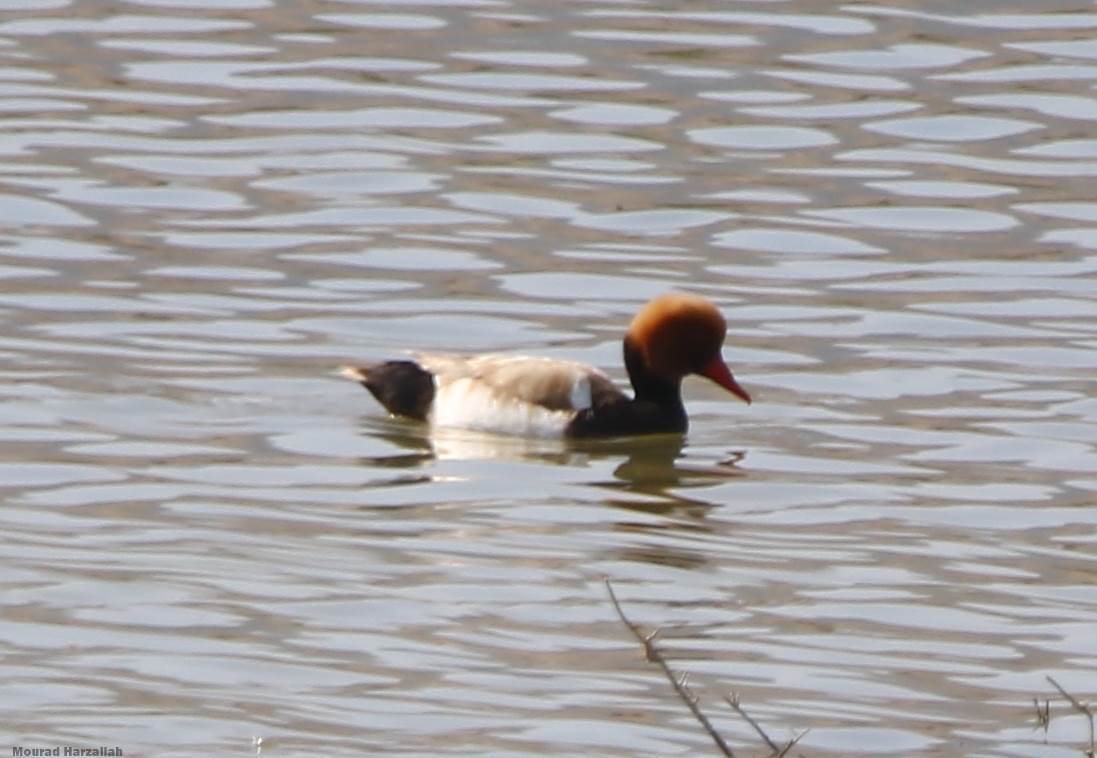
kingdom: Animalia
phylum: Chordata
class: Aves
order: Anseriformes
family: Anatidae
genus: Netta
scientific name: Netta rufina
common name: Red-crested pochard
